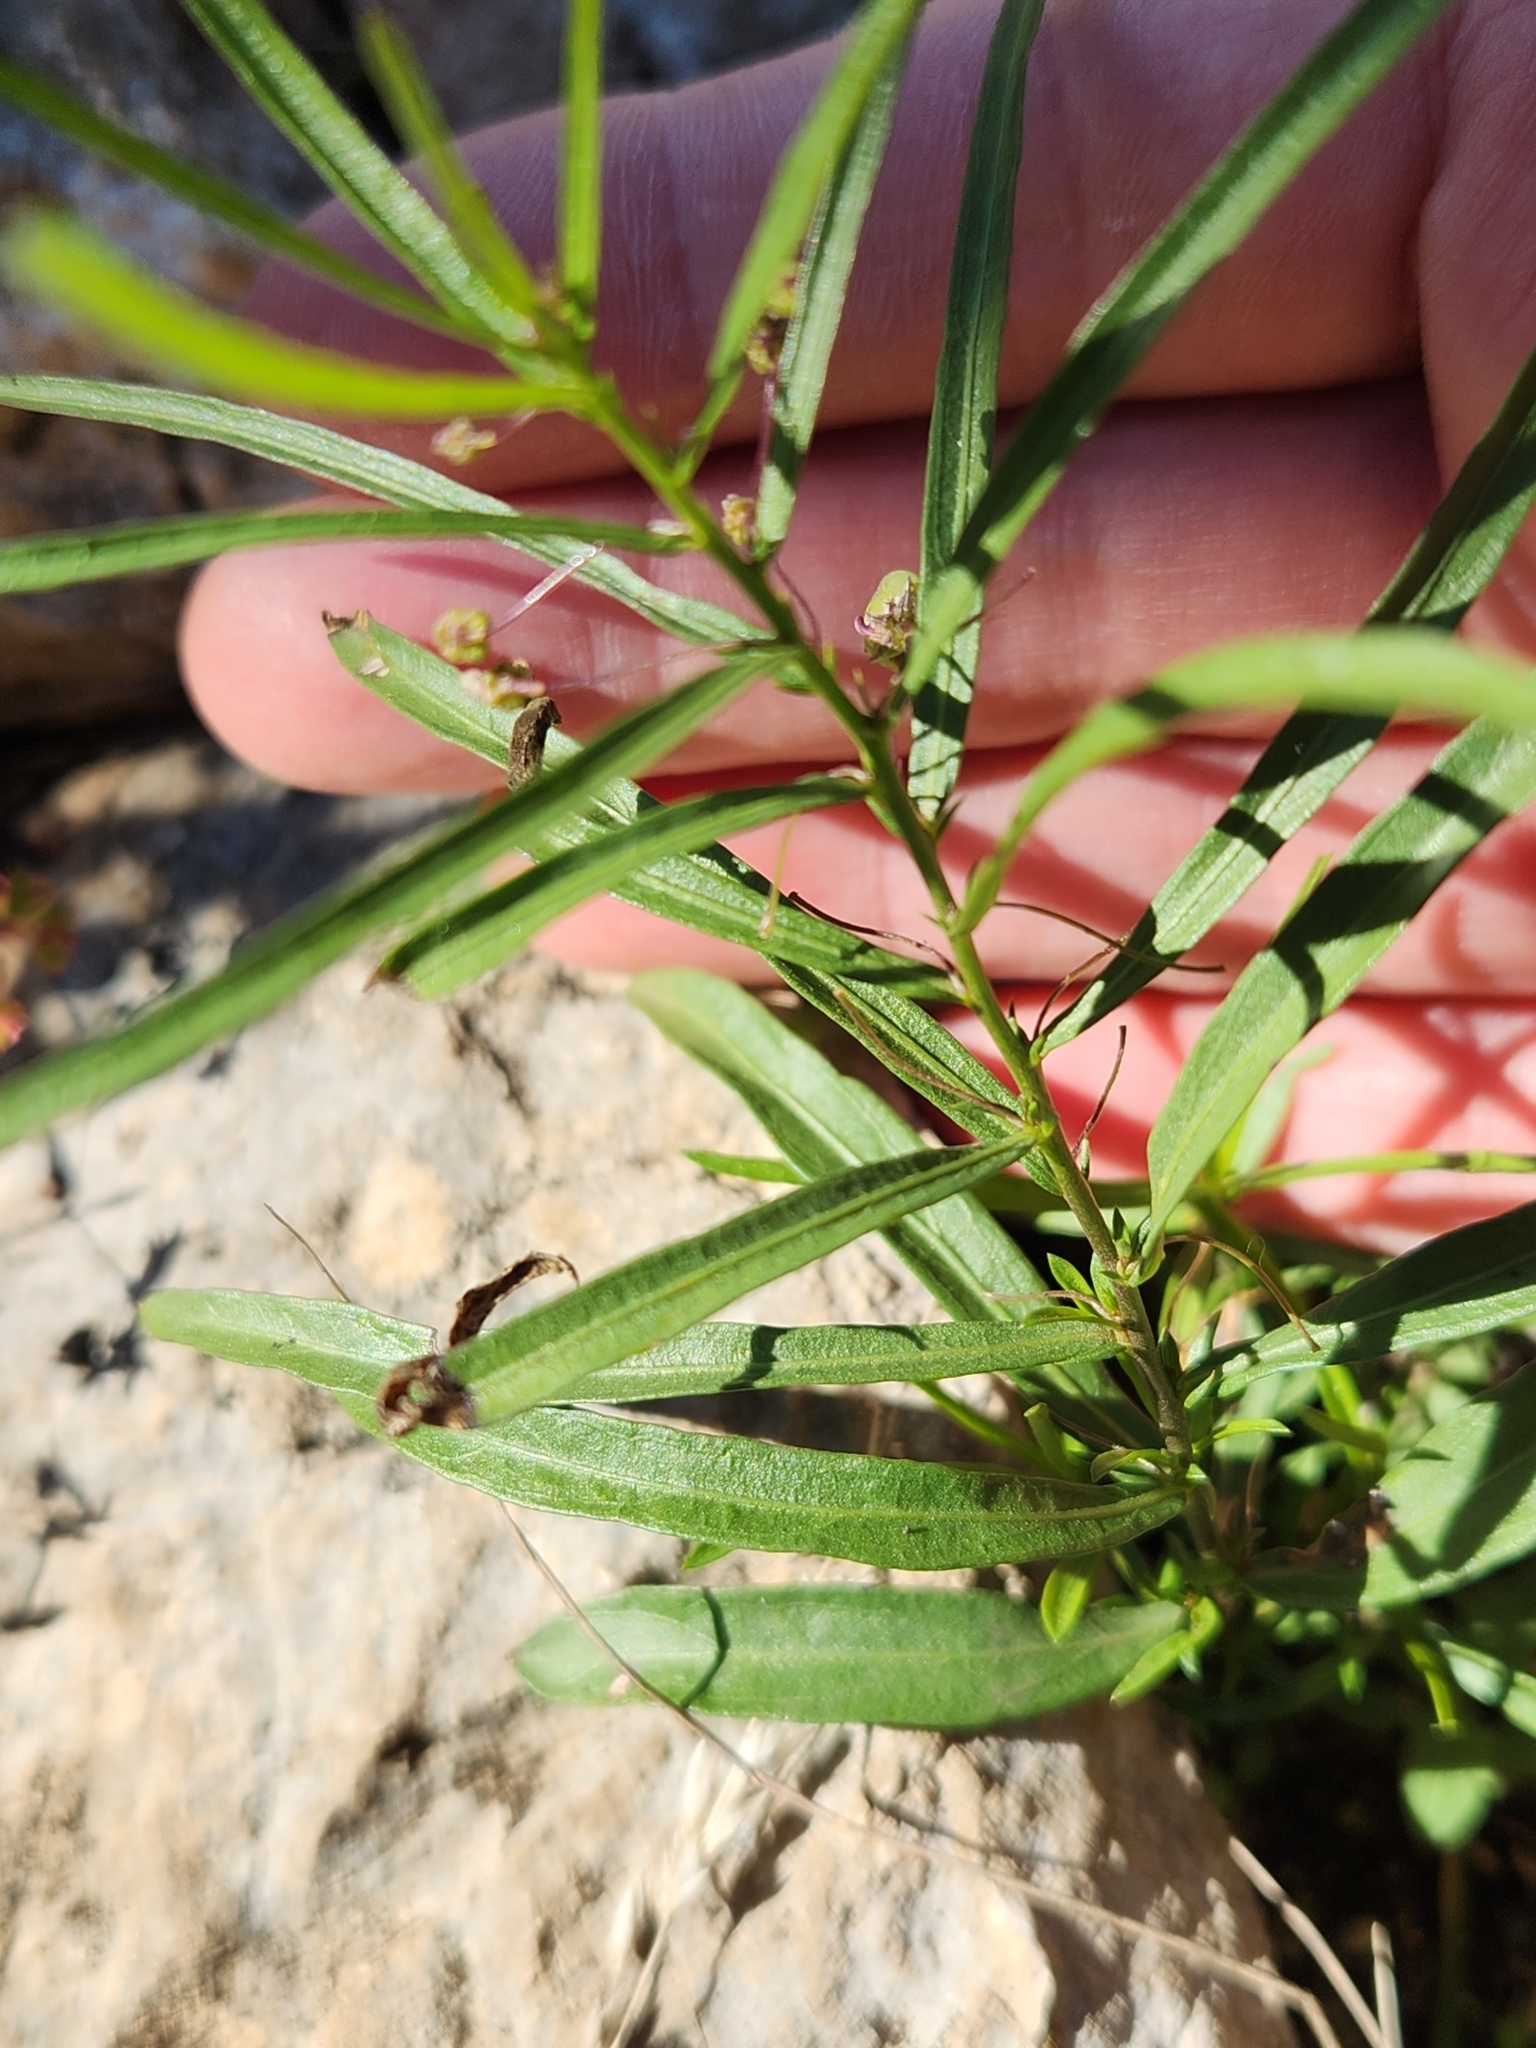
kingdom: Plantae
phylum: Tracheophyta
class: Magnoliopsida
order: Malpighiales
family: Violaceae
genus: Pombalia
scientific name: Pombalia verticillata
